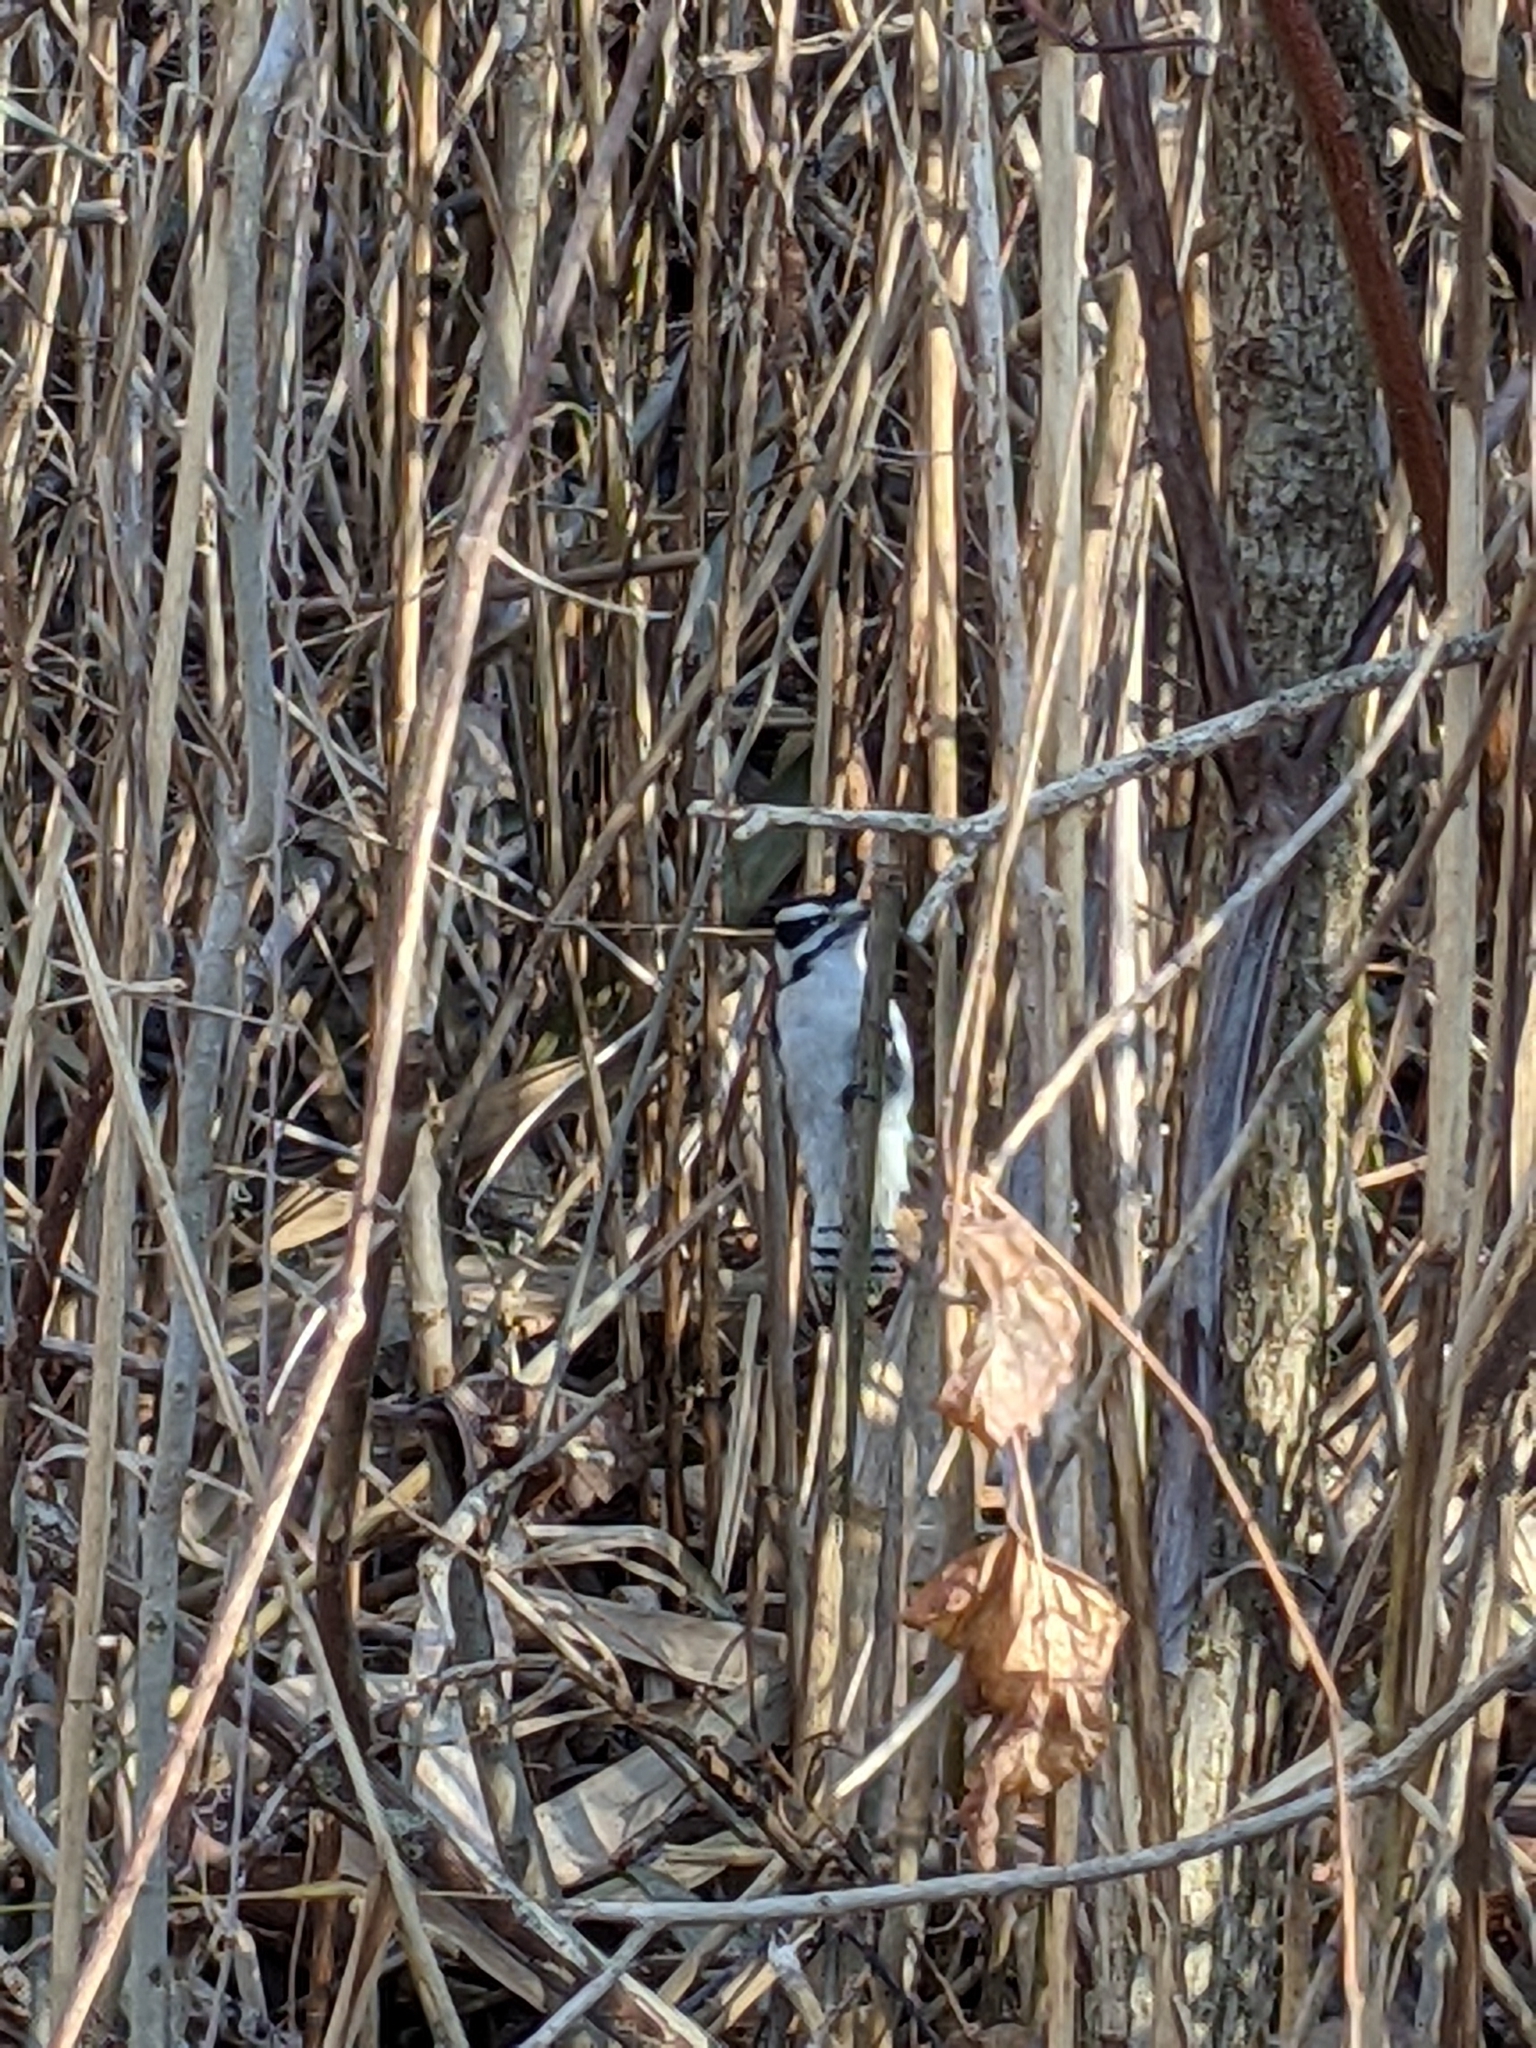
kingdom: Animalia
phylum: Chordata
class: Aves
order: Piciformes
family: Picidae
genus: Dryobates
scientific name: Dryobates pubescens
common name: Downy woodpecker
